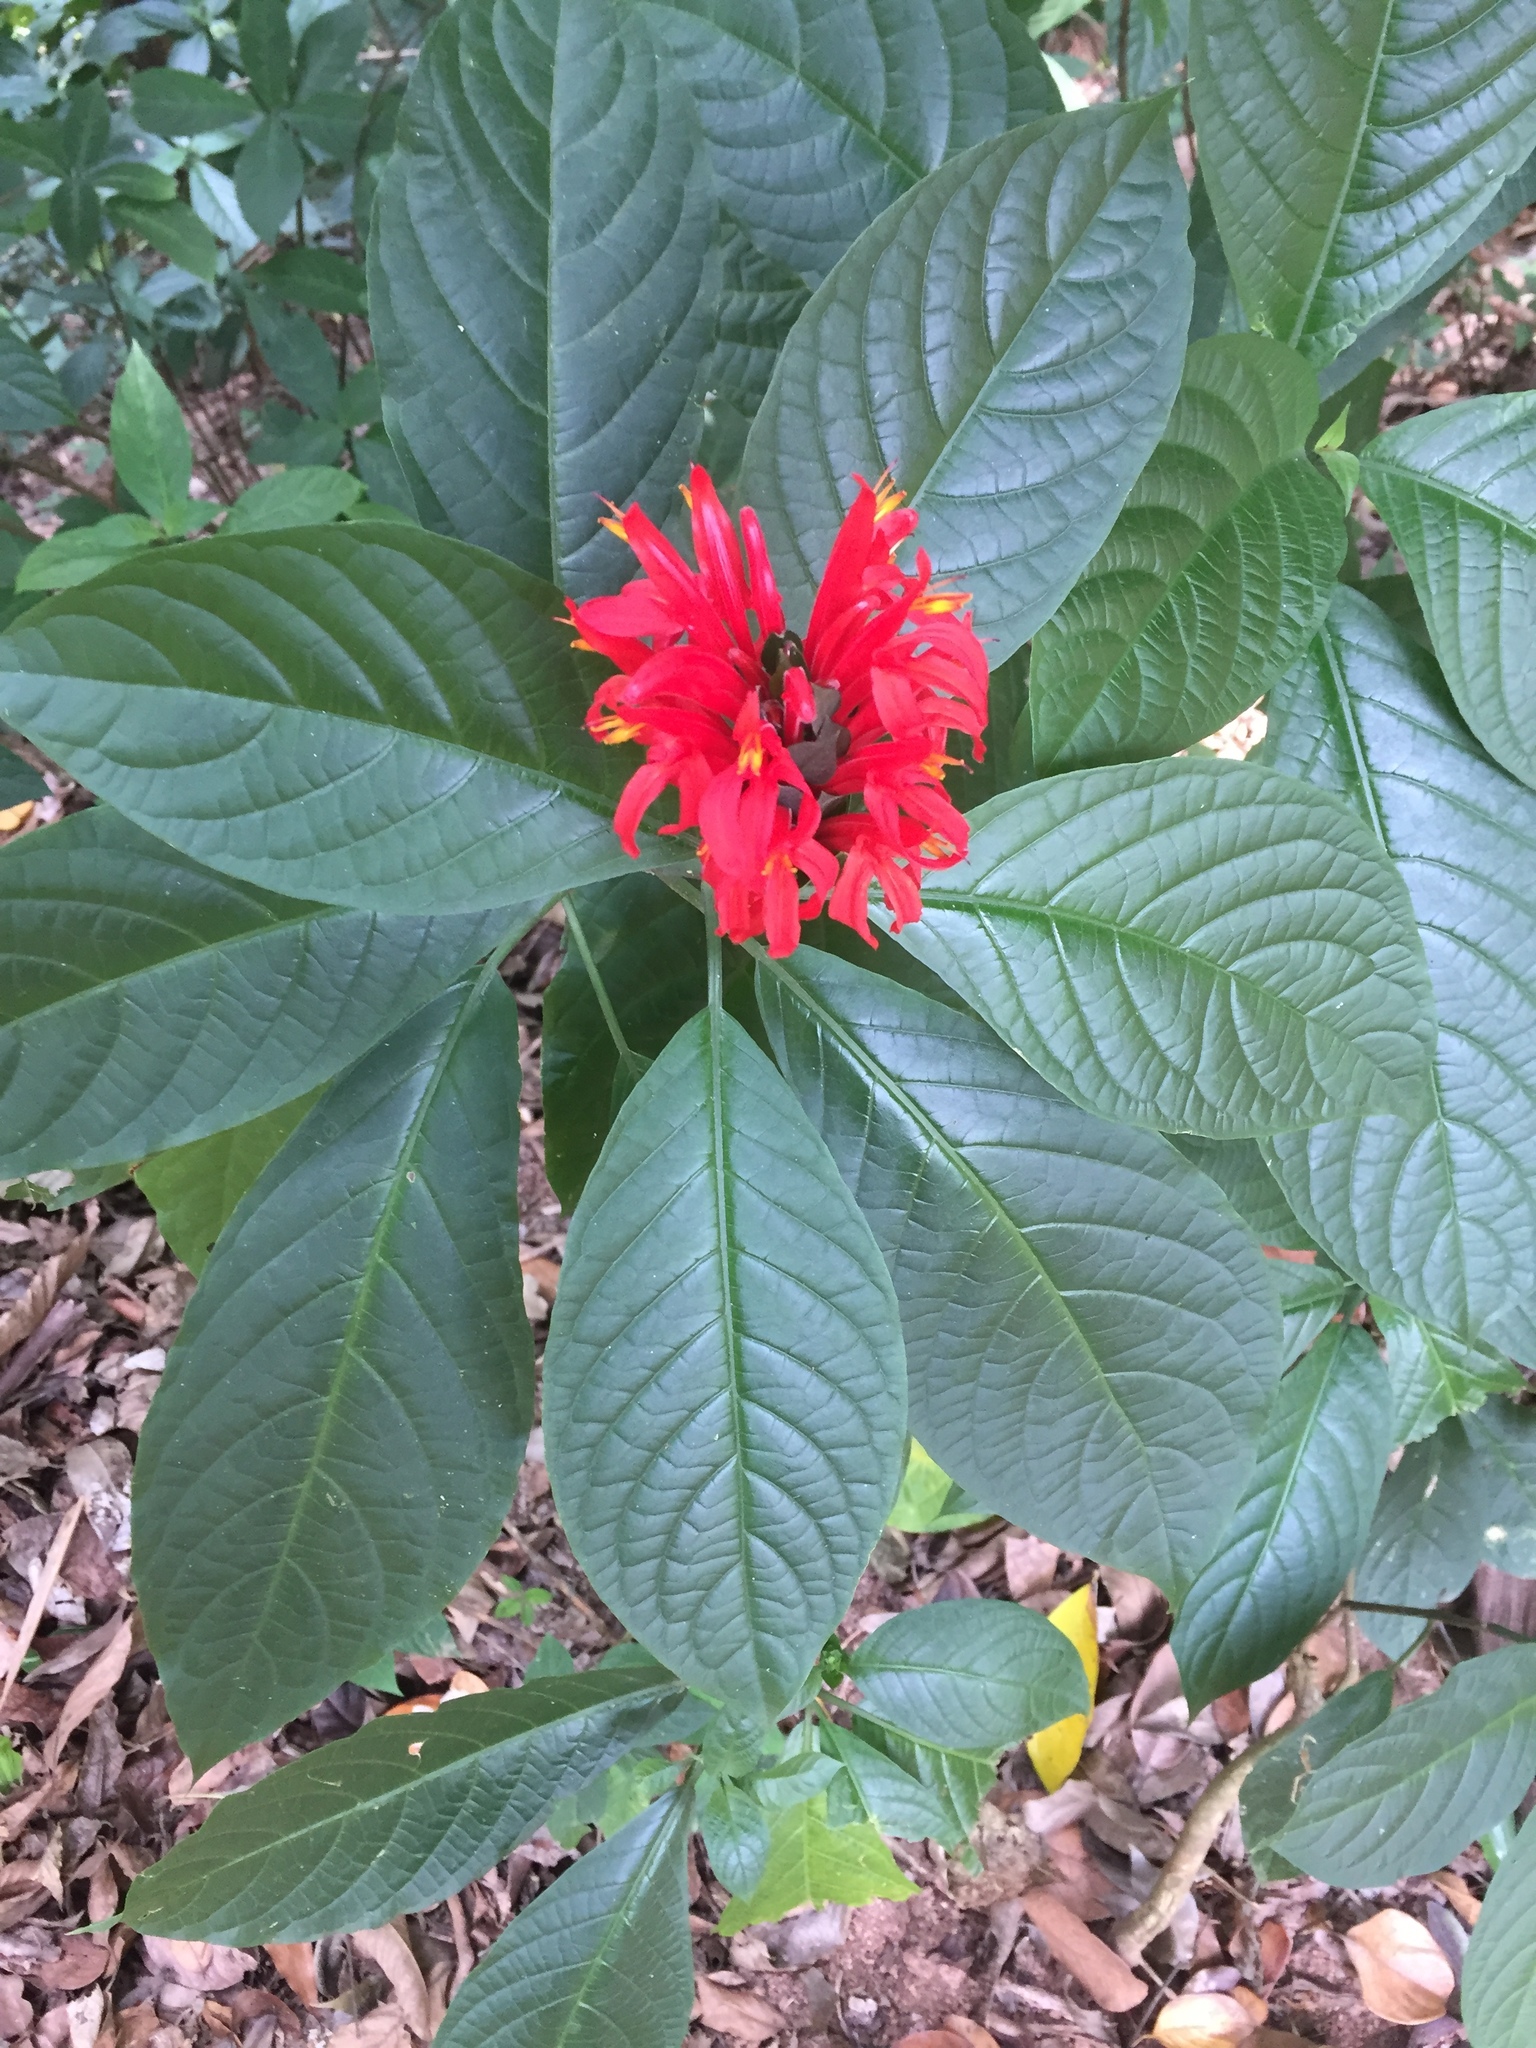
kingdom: Plantae
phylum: Tracheophyta
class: Magnoliopsida
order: Lamiales
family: Acanthaceae
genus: Pachystachys
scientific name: Pachystachys spicata
